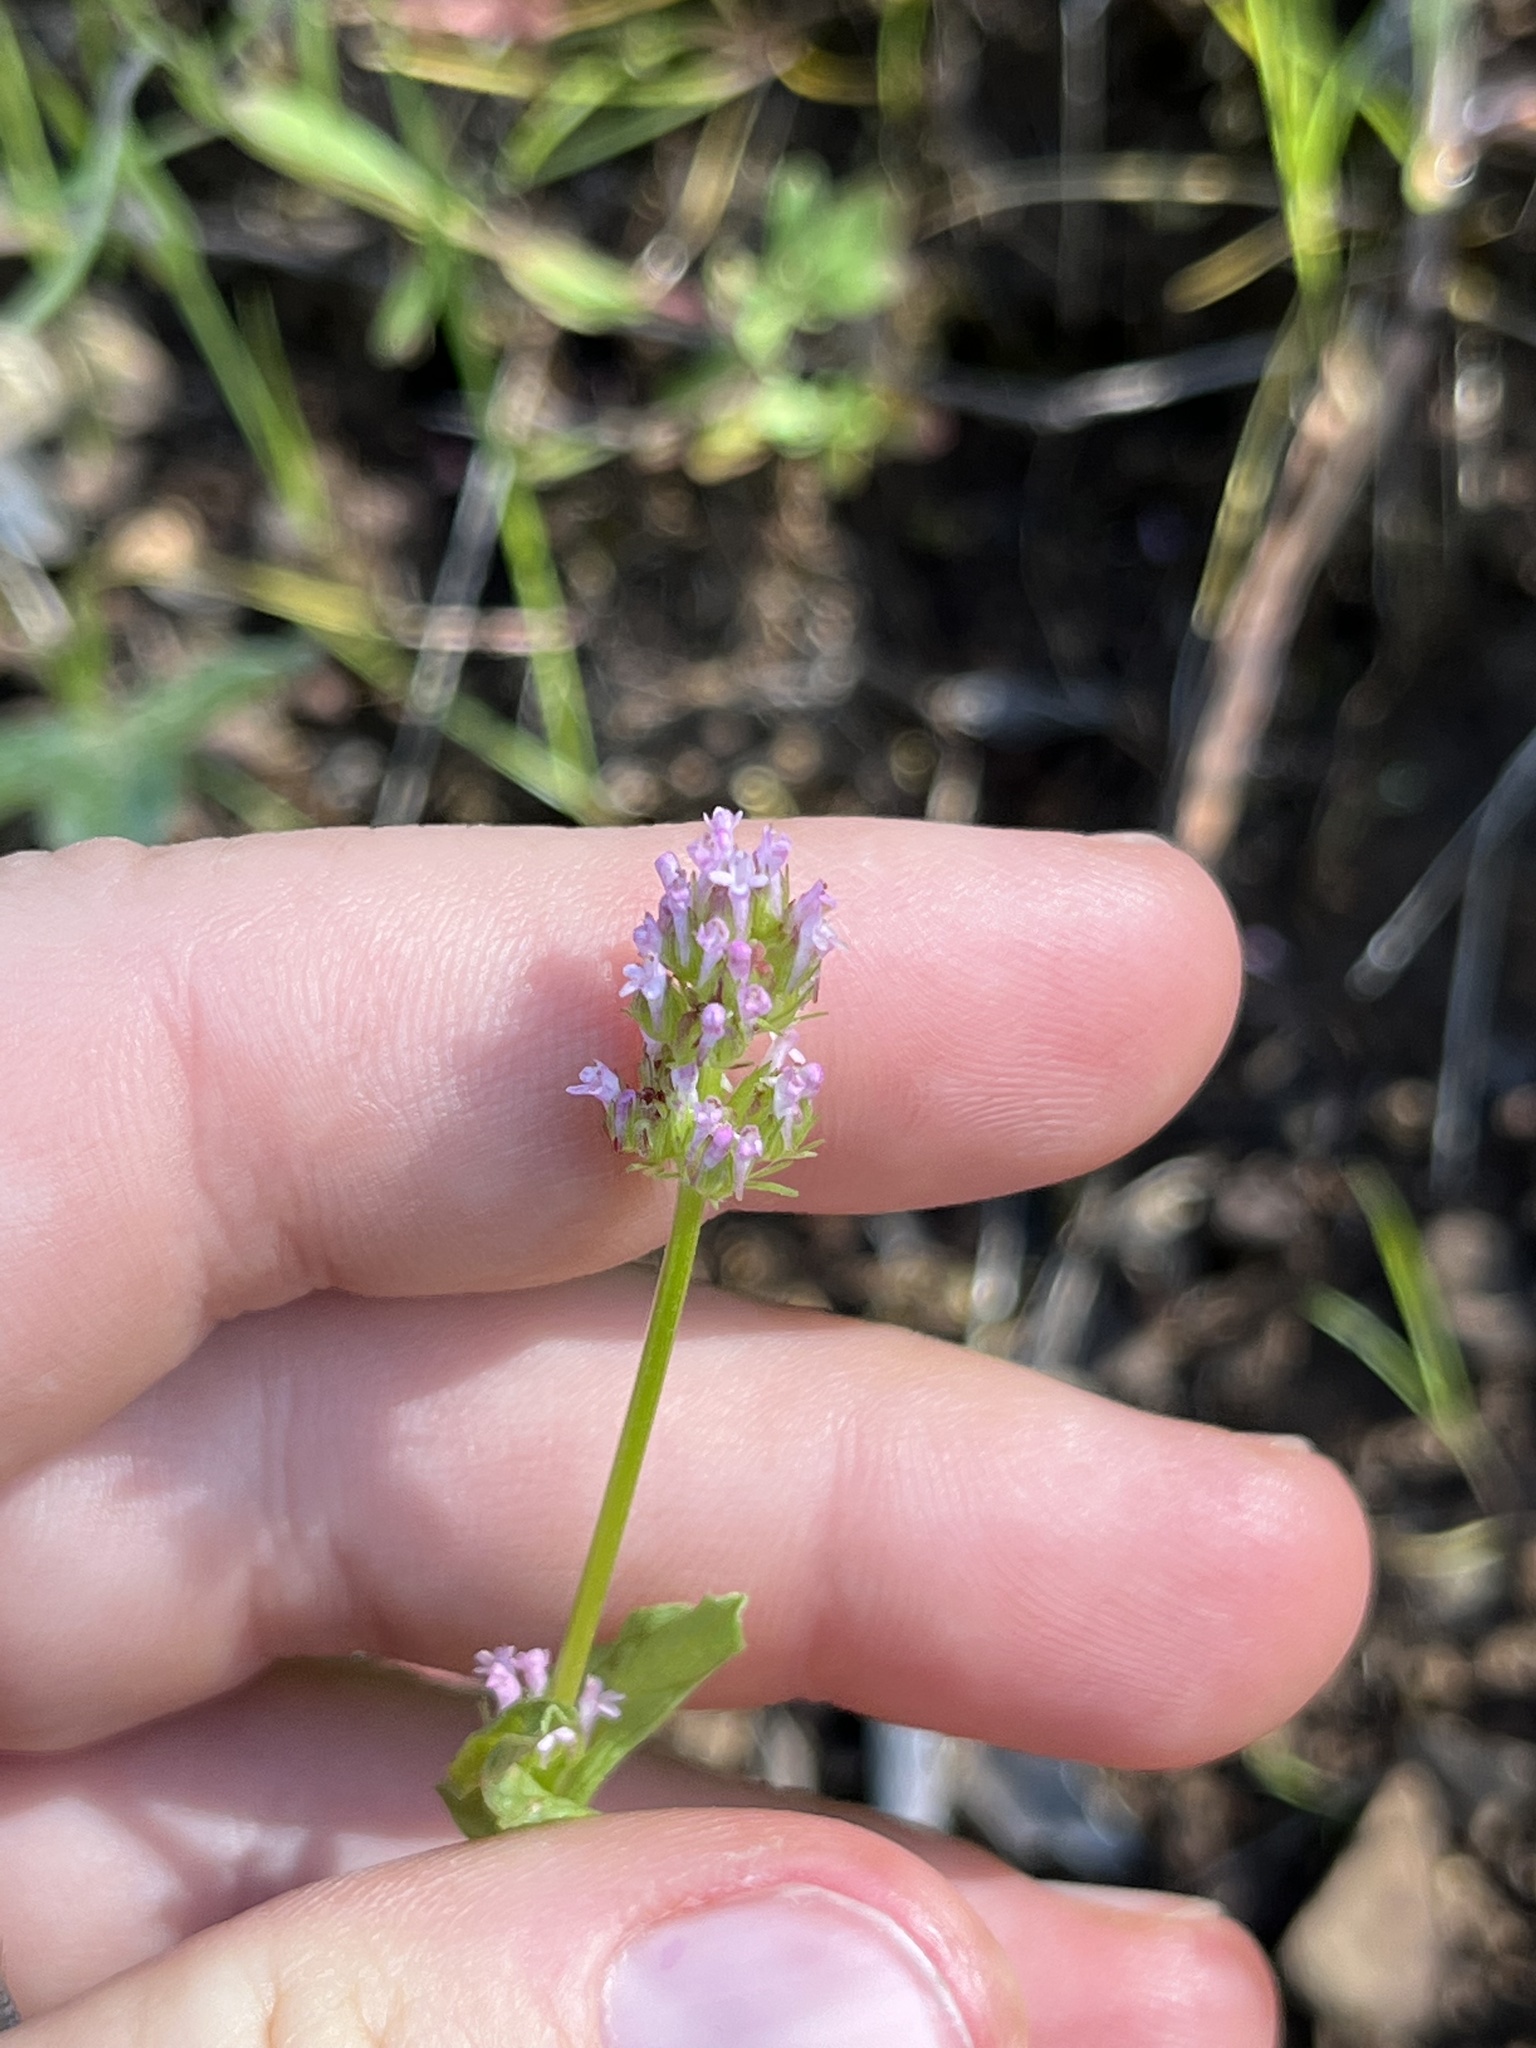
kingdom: Plantae
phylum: Tracheophyta
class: Magnoliopsida
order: Dipsacales
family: Caprifoliaceae
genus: Plectritis
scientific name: Plectritis ciliosa
